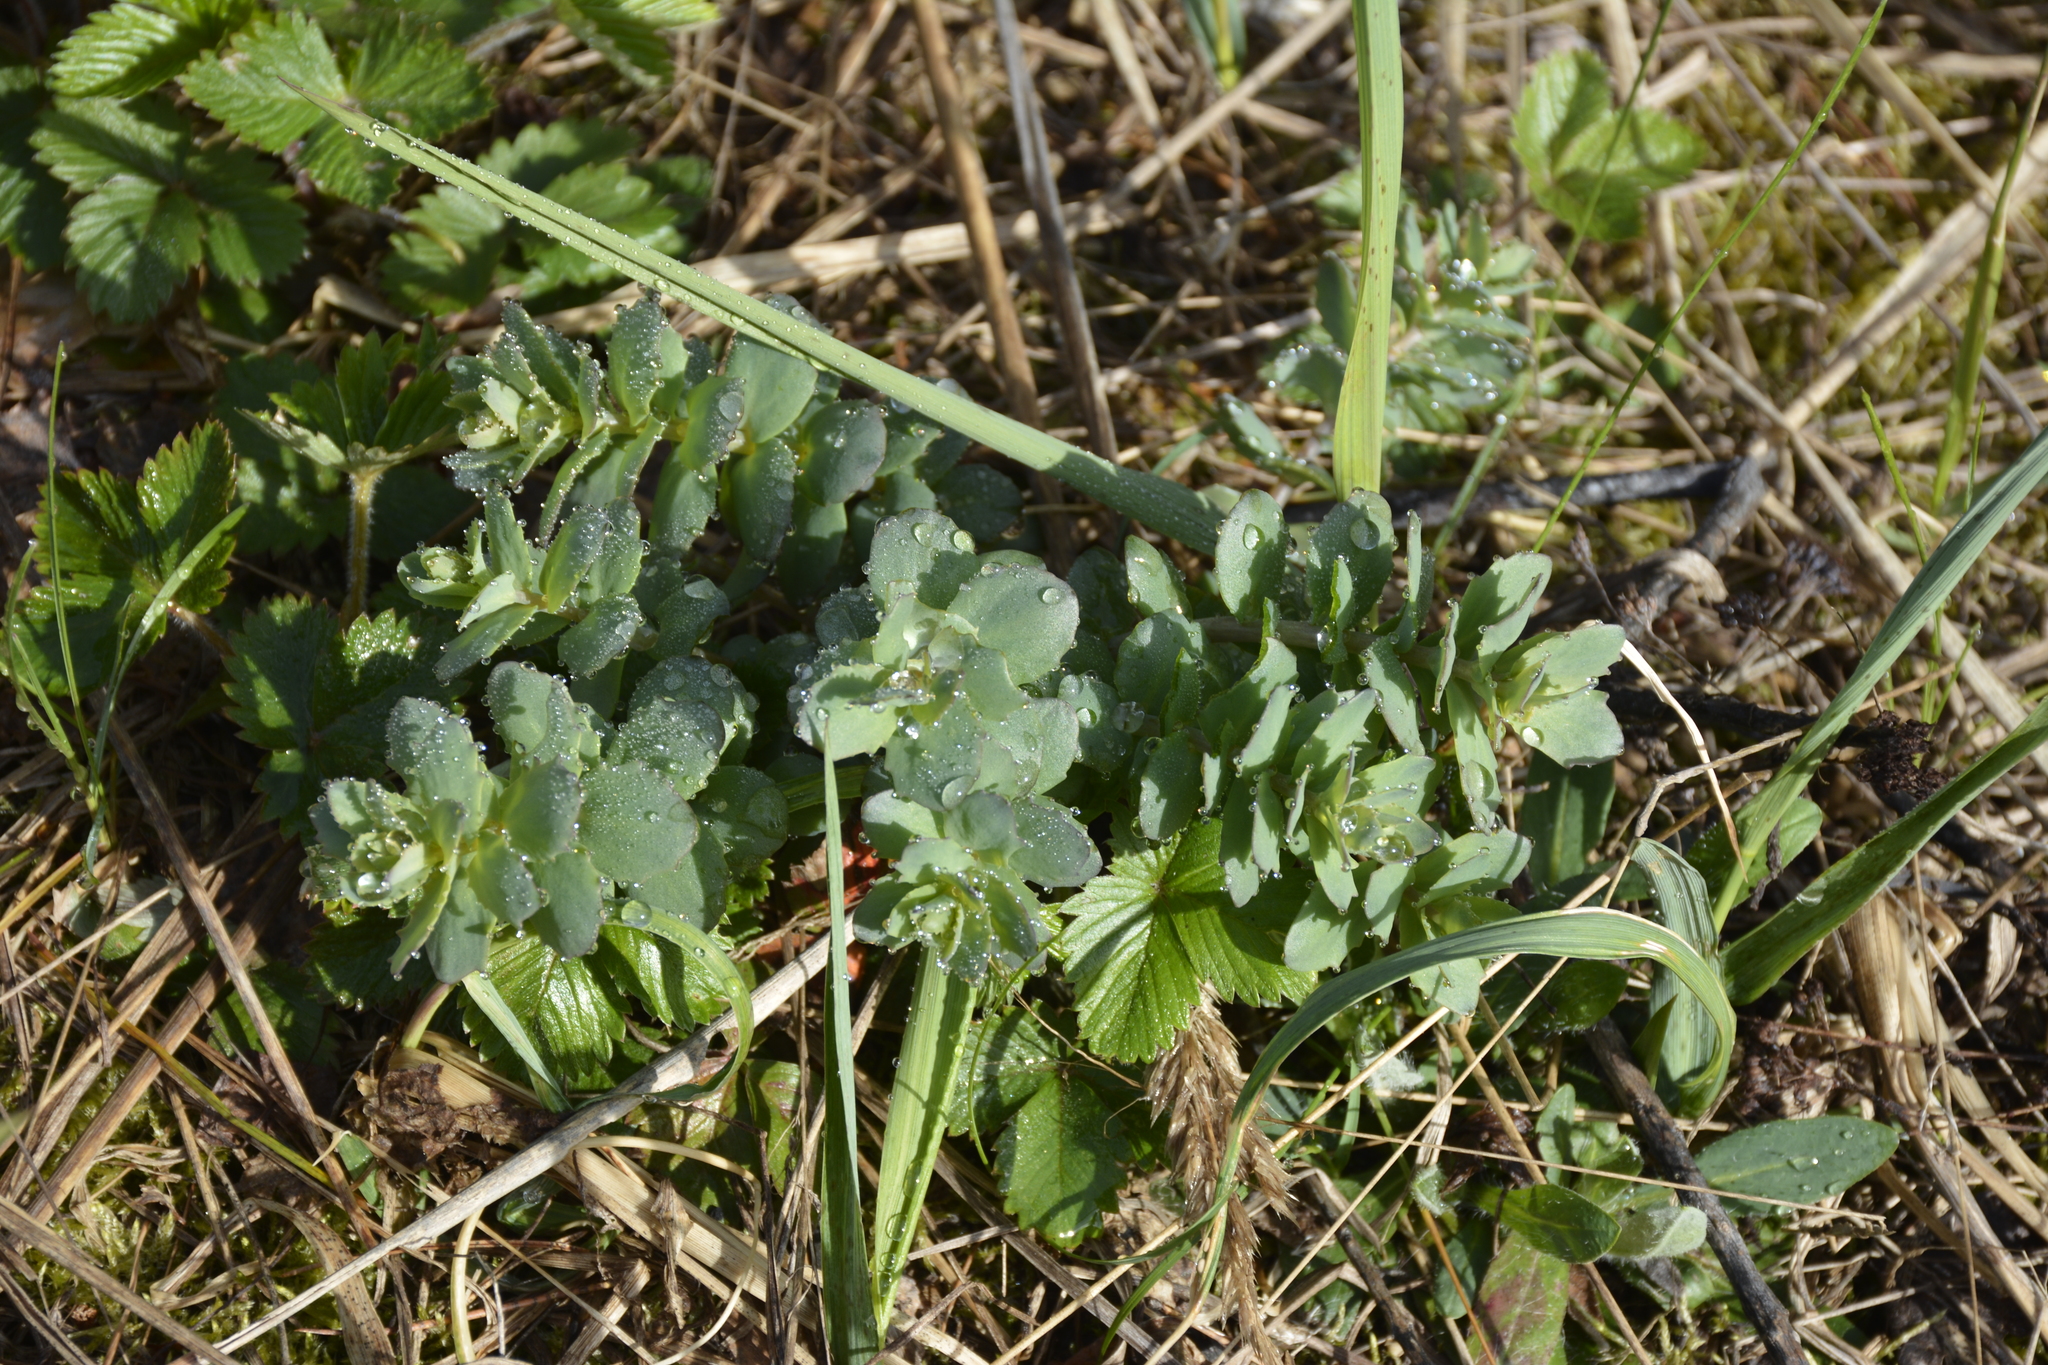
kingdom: Plantae
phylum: Tracheophyta
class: Magnoliopsida
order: Saxifragales
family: Crassulaceae
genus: Hylotelephium
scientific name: Hylotelephium maximum
